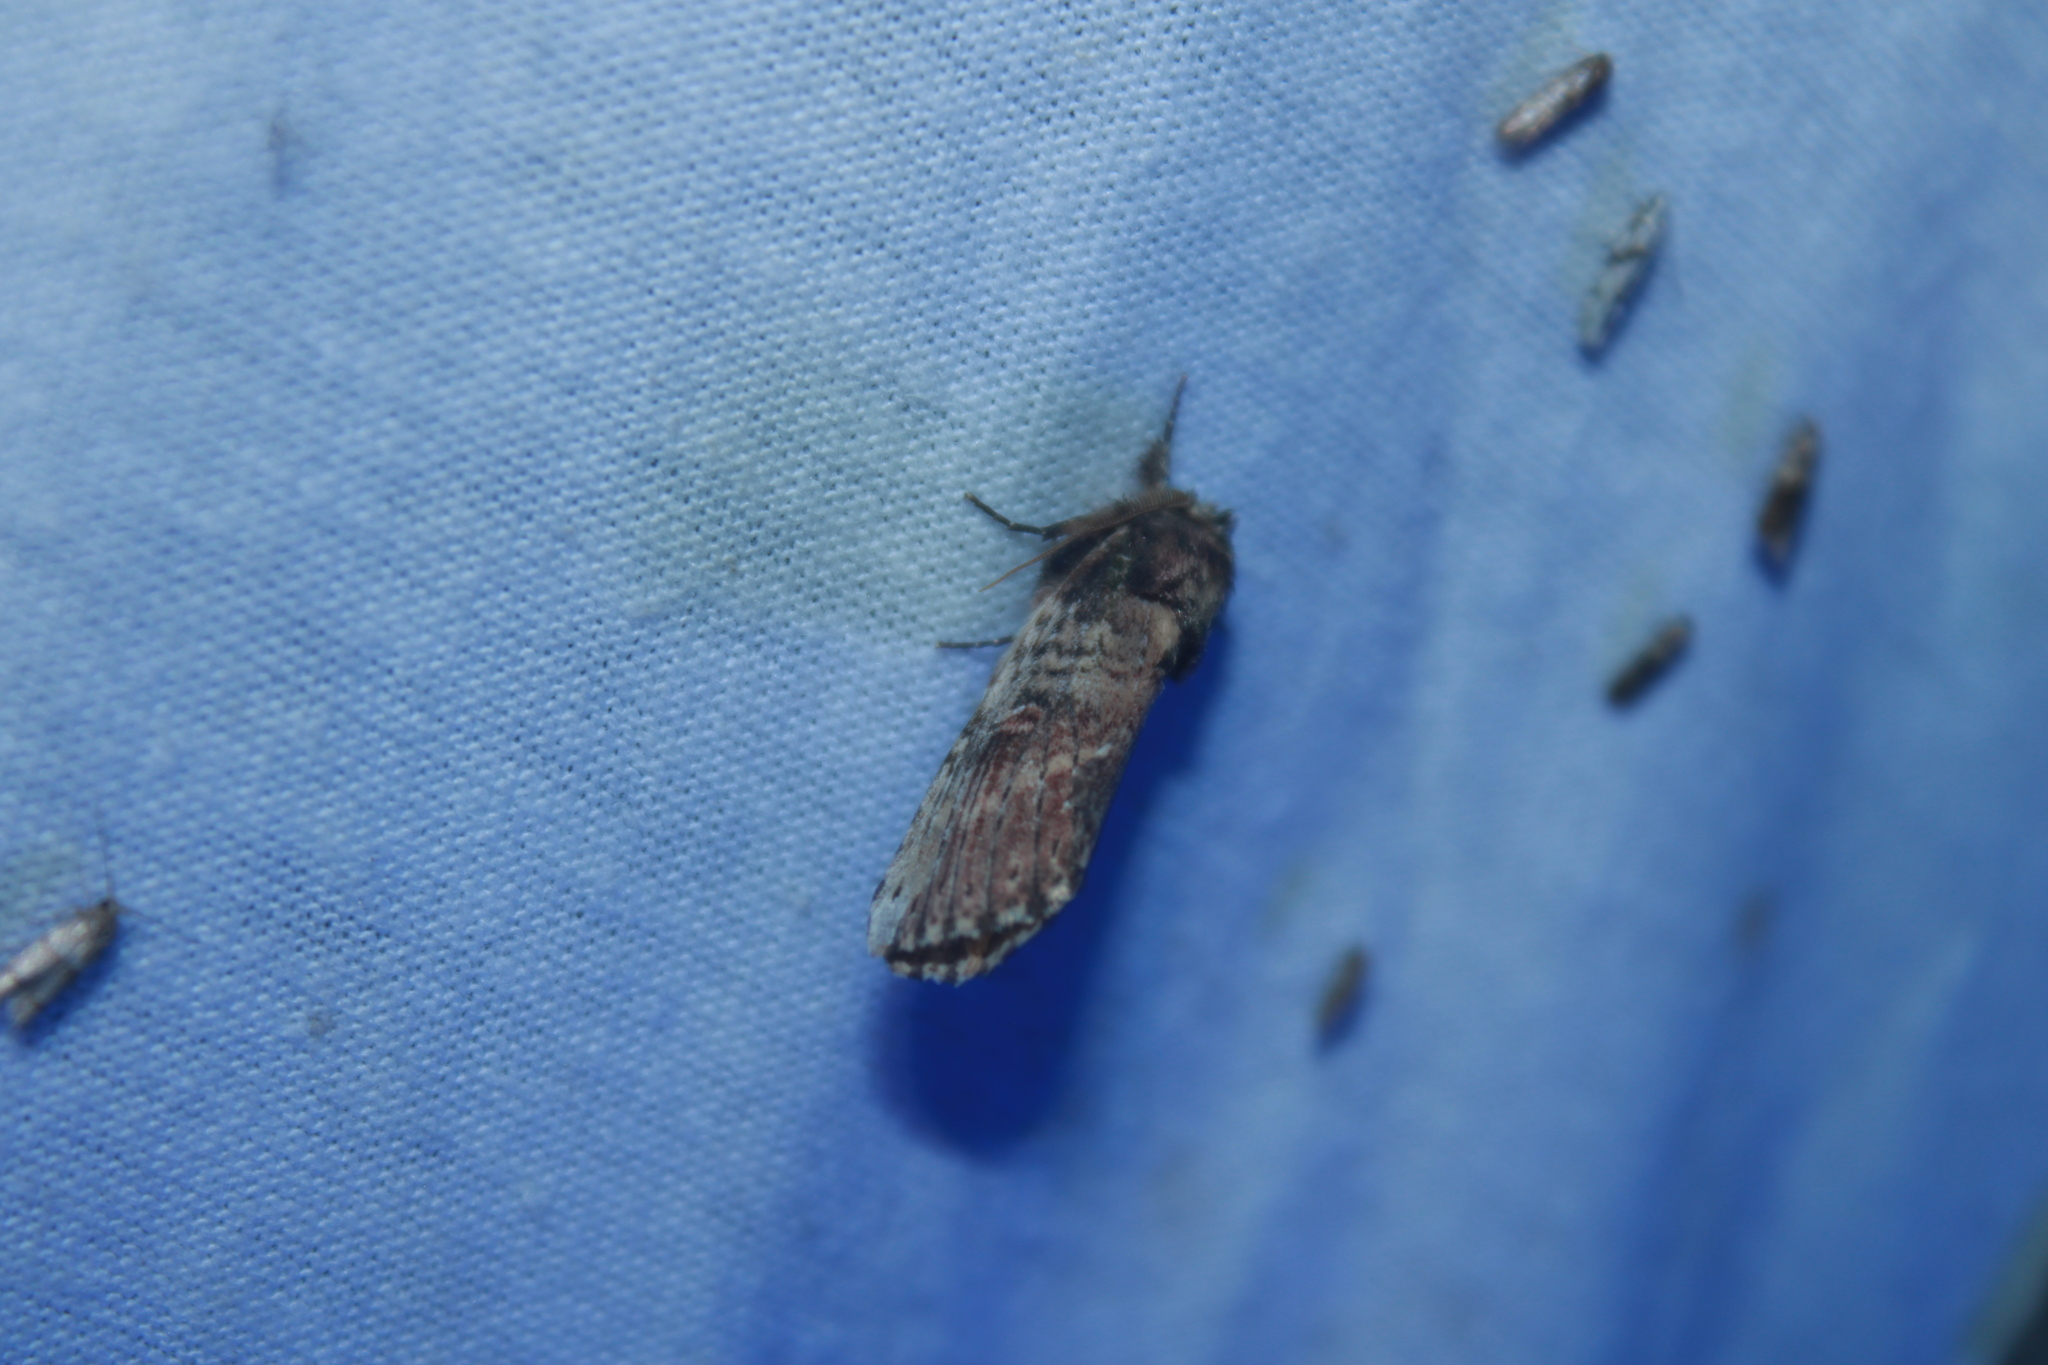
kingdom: Animalia
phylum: Arthropoda
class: Insecta
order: Lepidoptera
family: Notodontidae
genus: Schizura
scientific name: Schizura ipomaeae
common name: Morning-glory prominent
